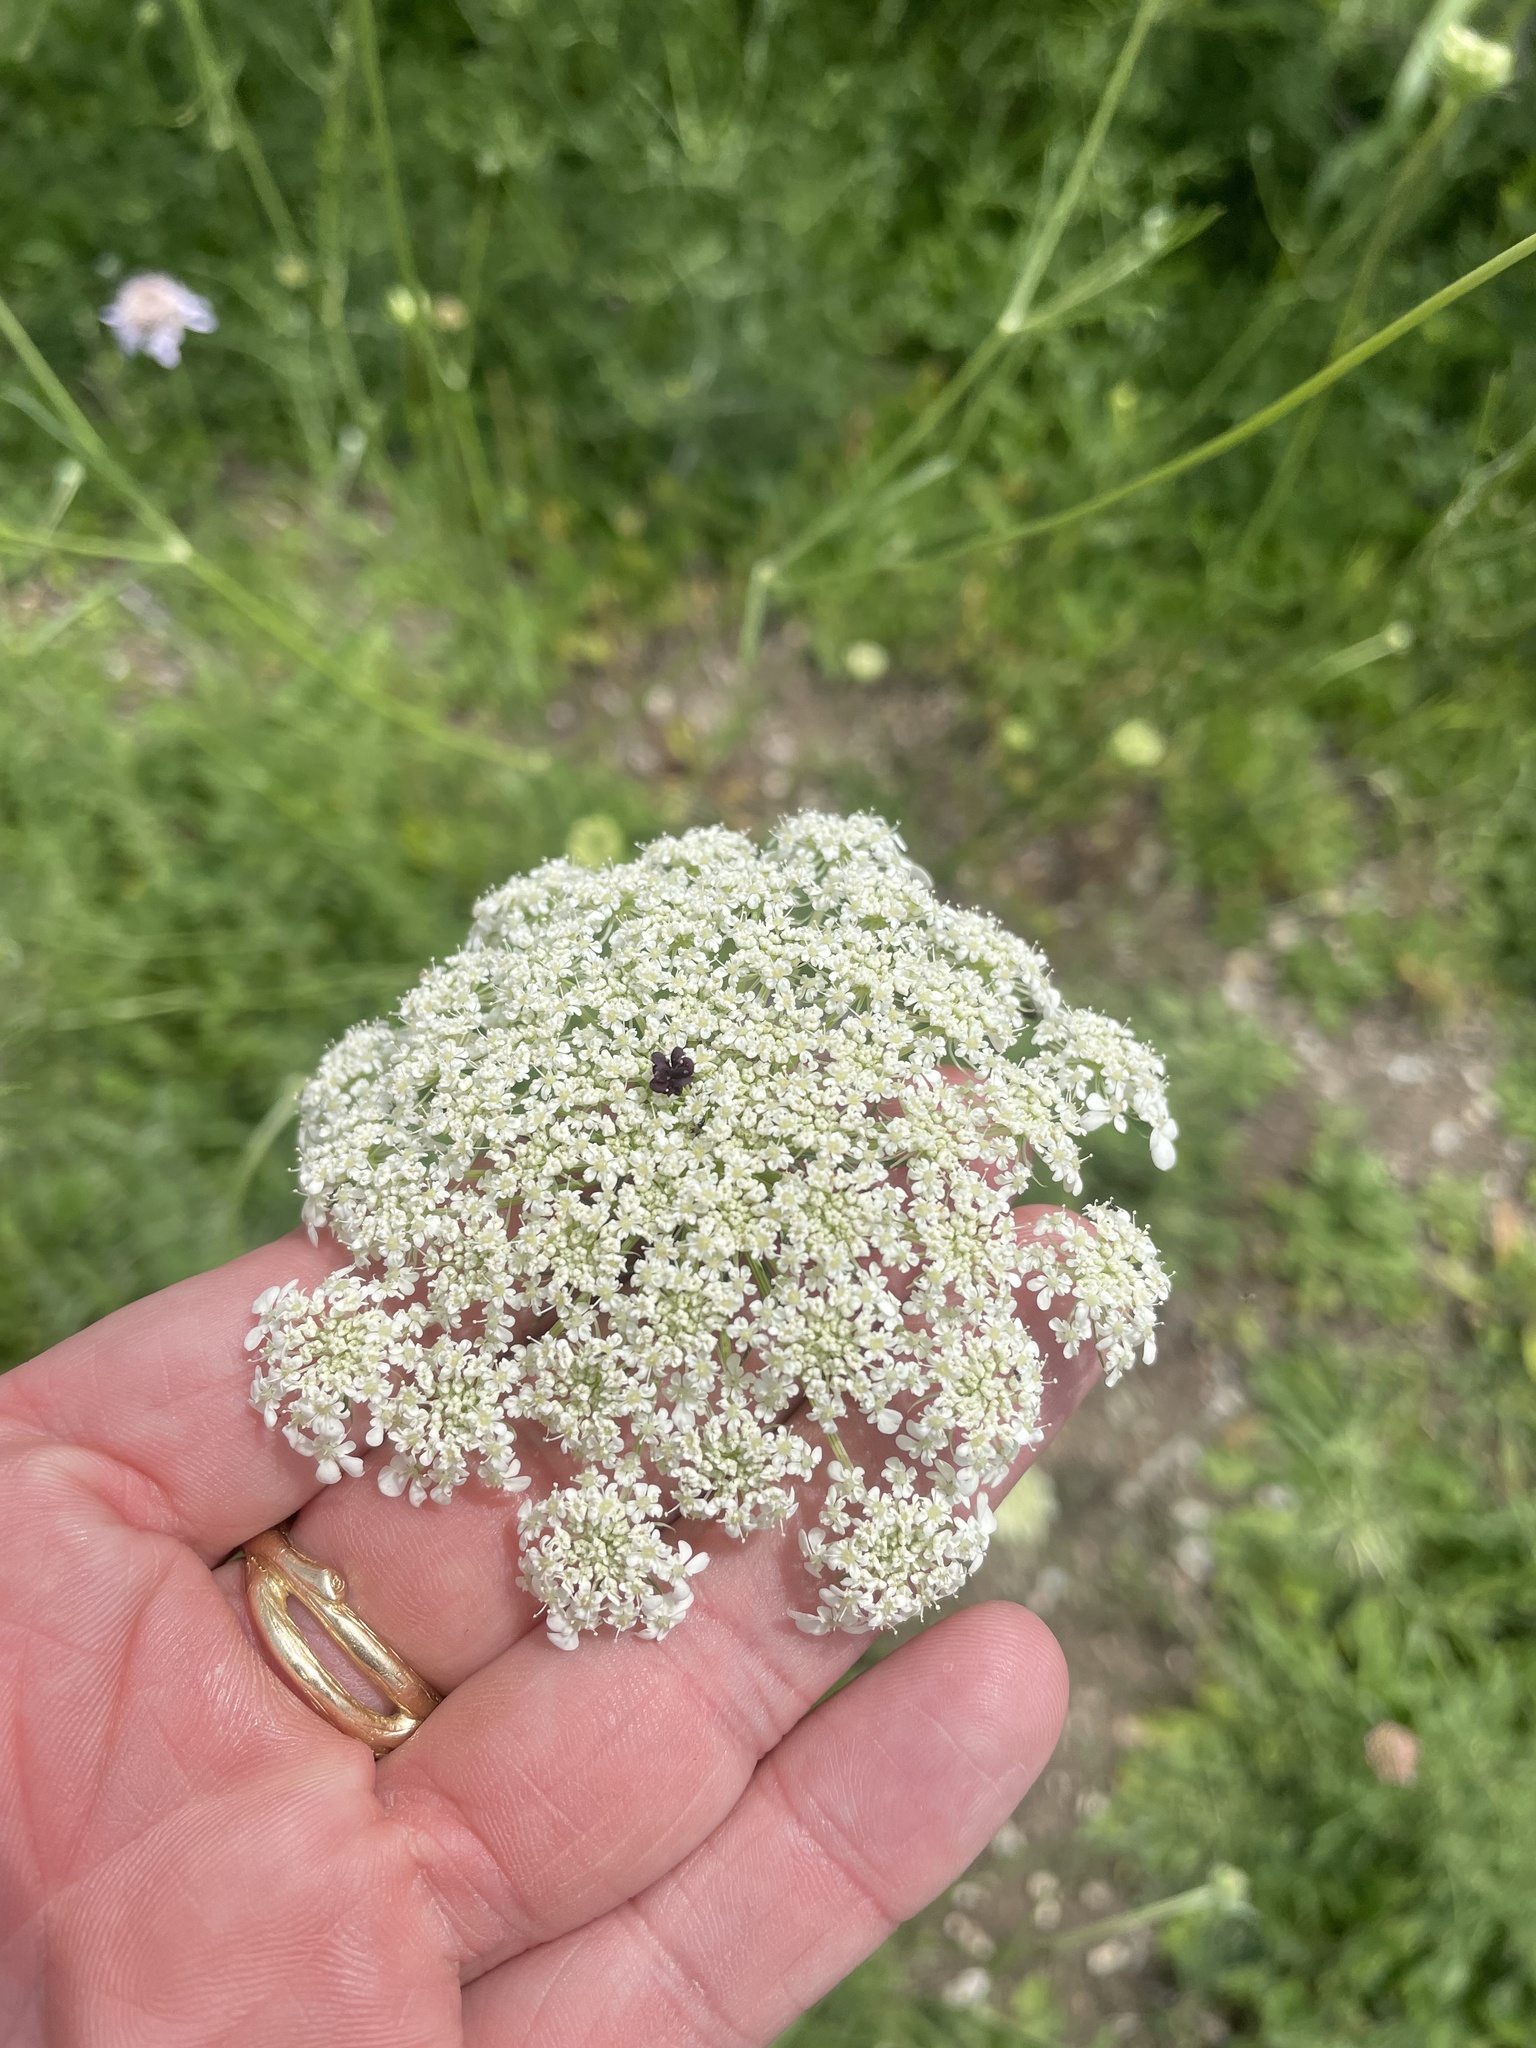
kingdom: Plantae
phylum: Tracheophyta
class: Magnoliopsida
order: Apiales
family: Apiaceae
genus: Daucus
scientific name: Daucus carota
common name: Wild carrot
